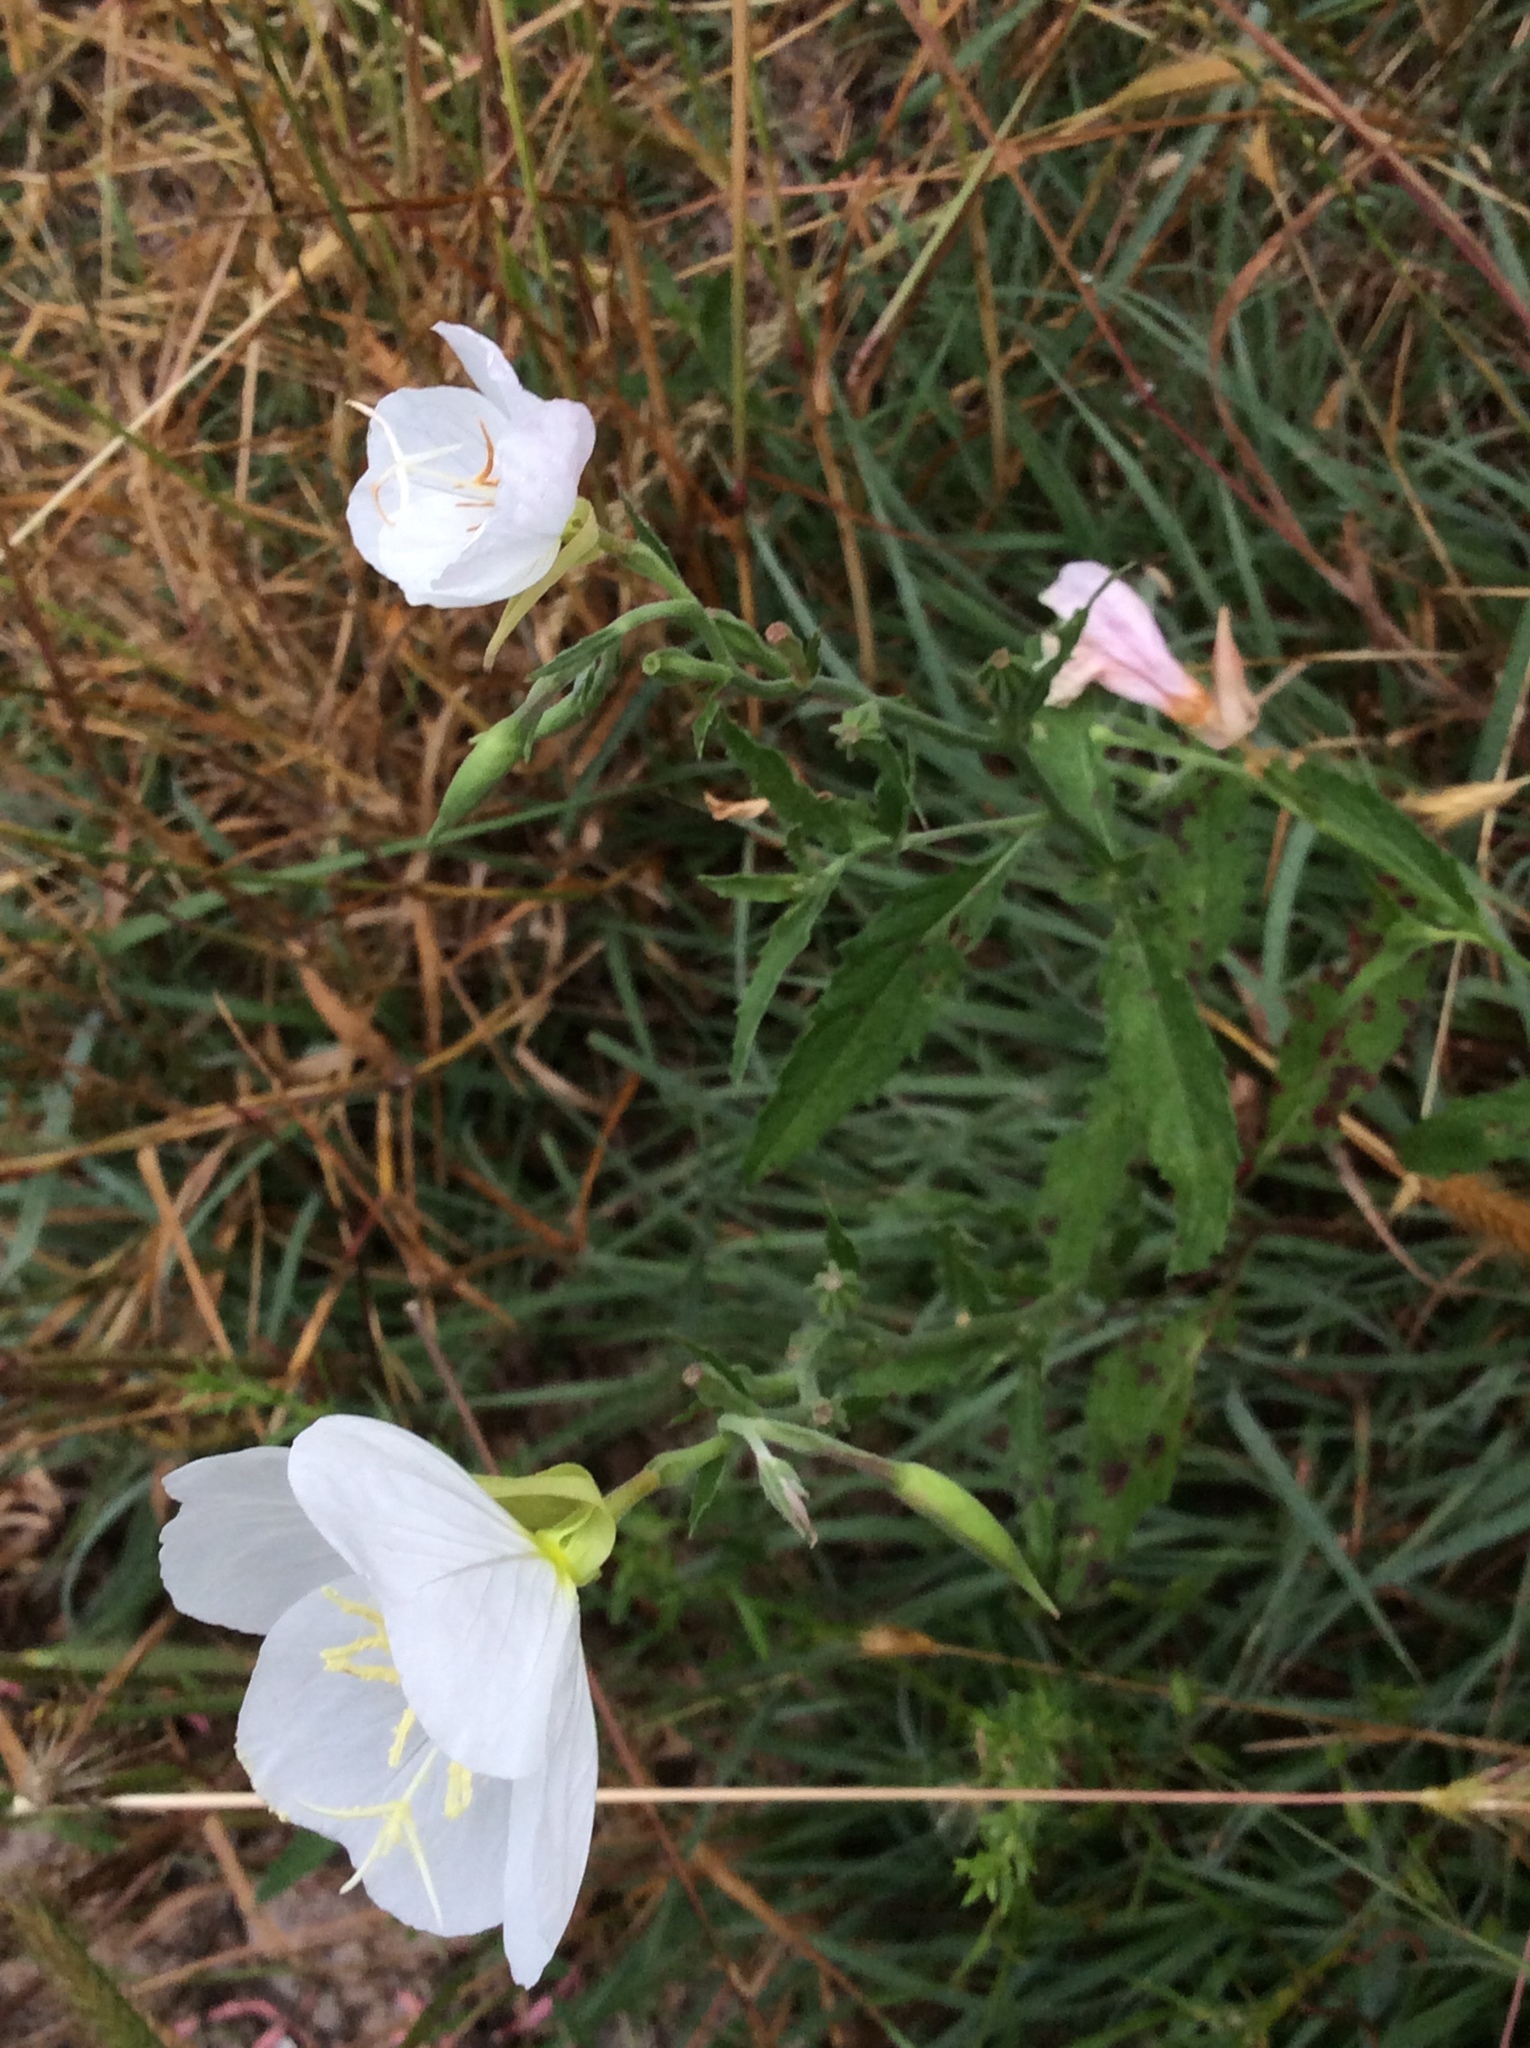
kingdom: Plantae
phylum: Tracheophyta
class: Magnoliopsida
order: Myrtales
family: Onagraceae
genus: Oenothera
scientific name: Oenothera speciosa
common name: White evening-primrose
